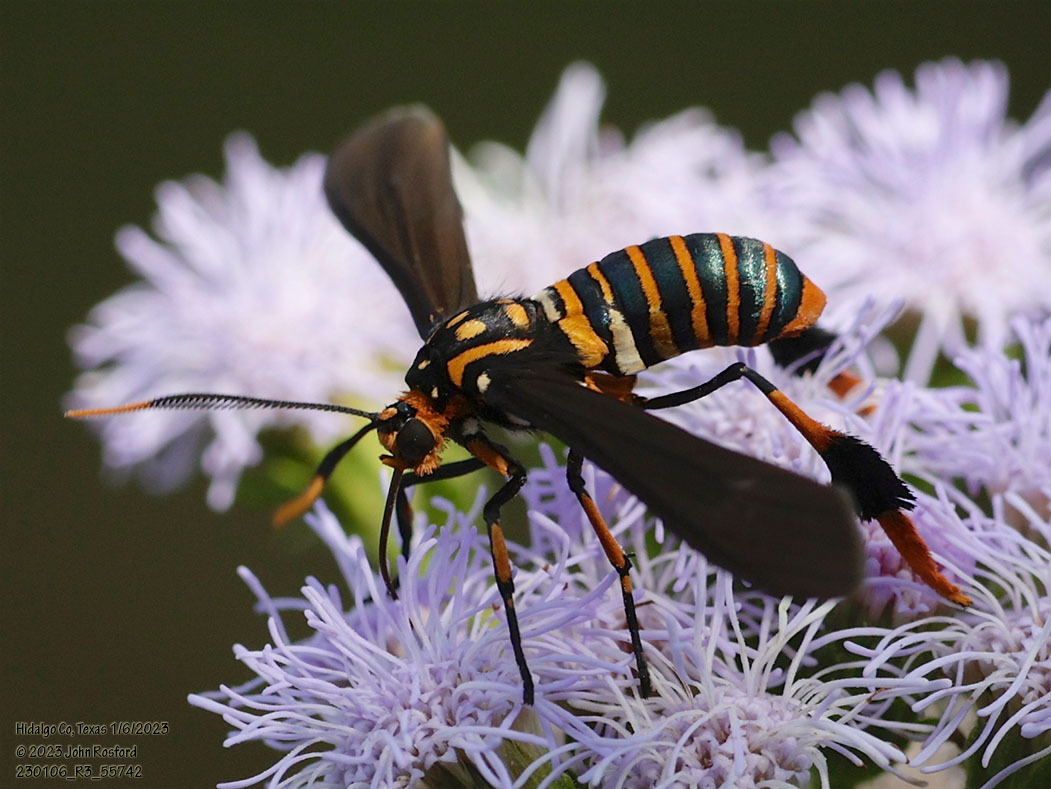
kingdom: Animalia
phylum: Arthropoda
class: Insecta
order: Lepidoptera
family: Erebidae
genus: Horama
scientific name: Horama panthalon
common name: Texas wasp moth
